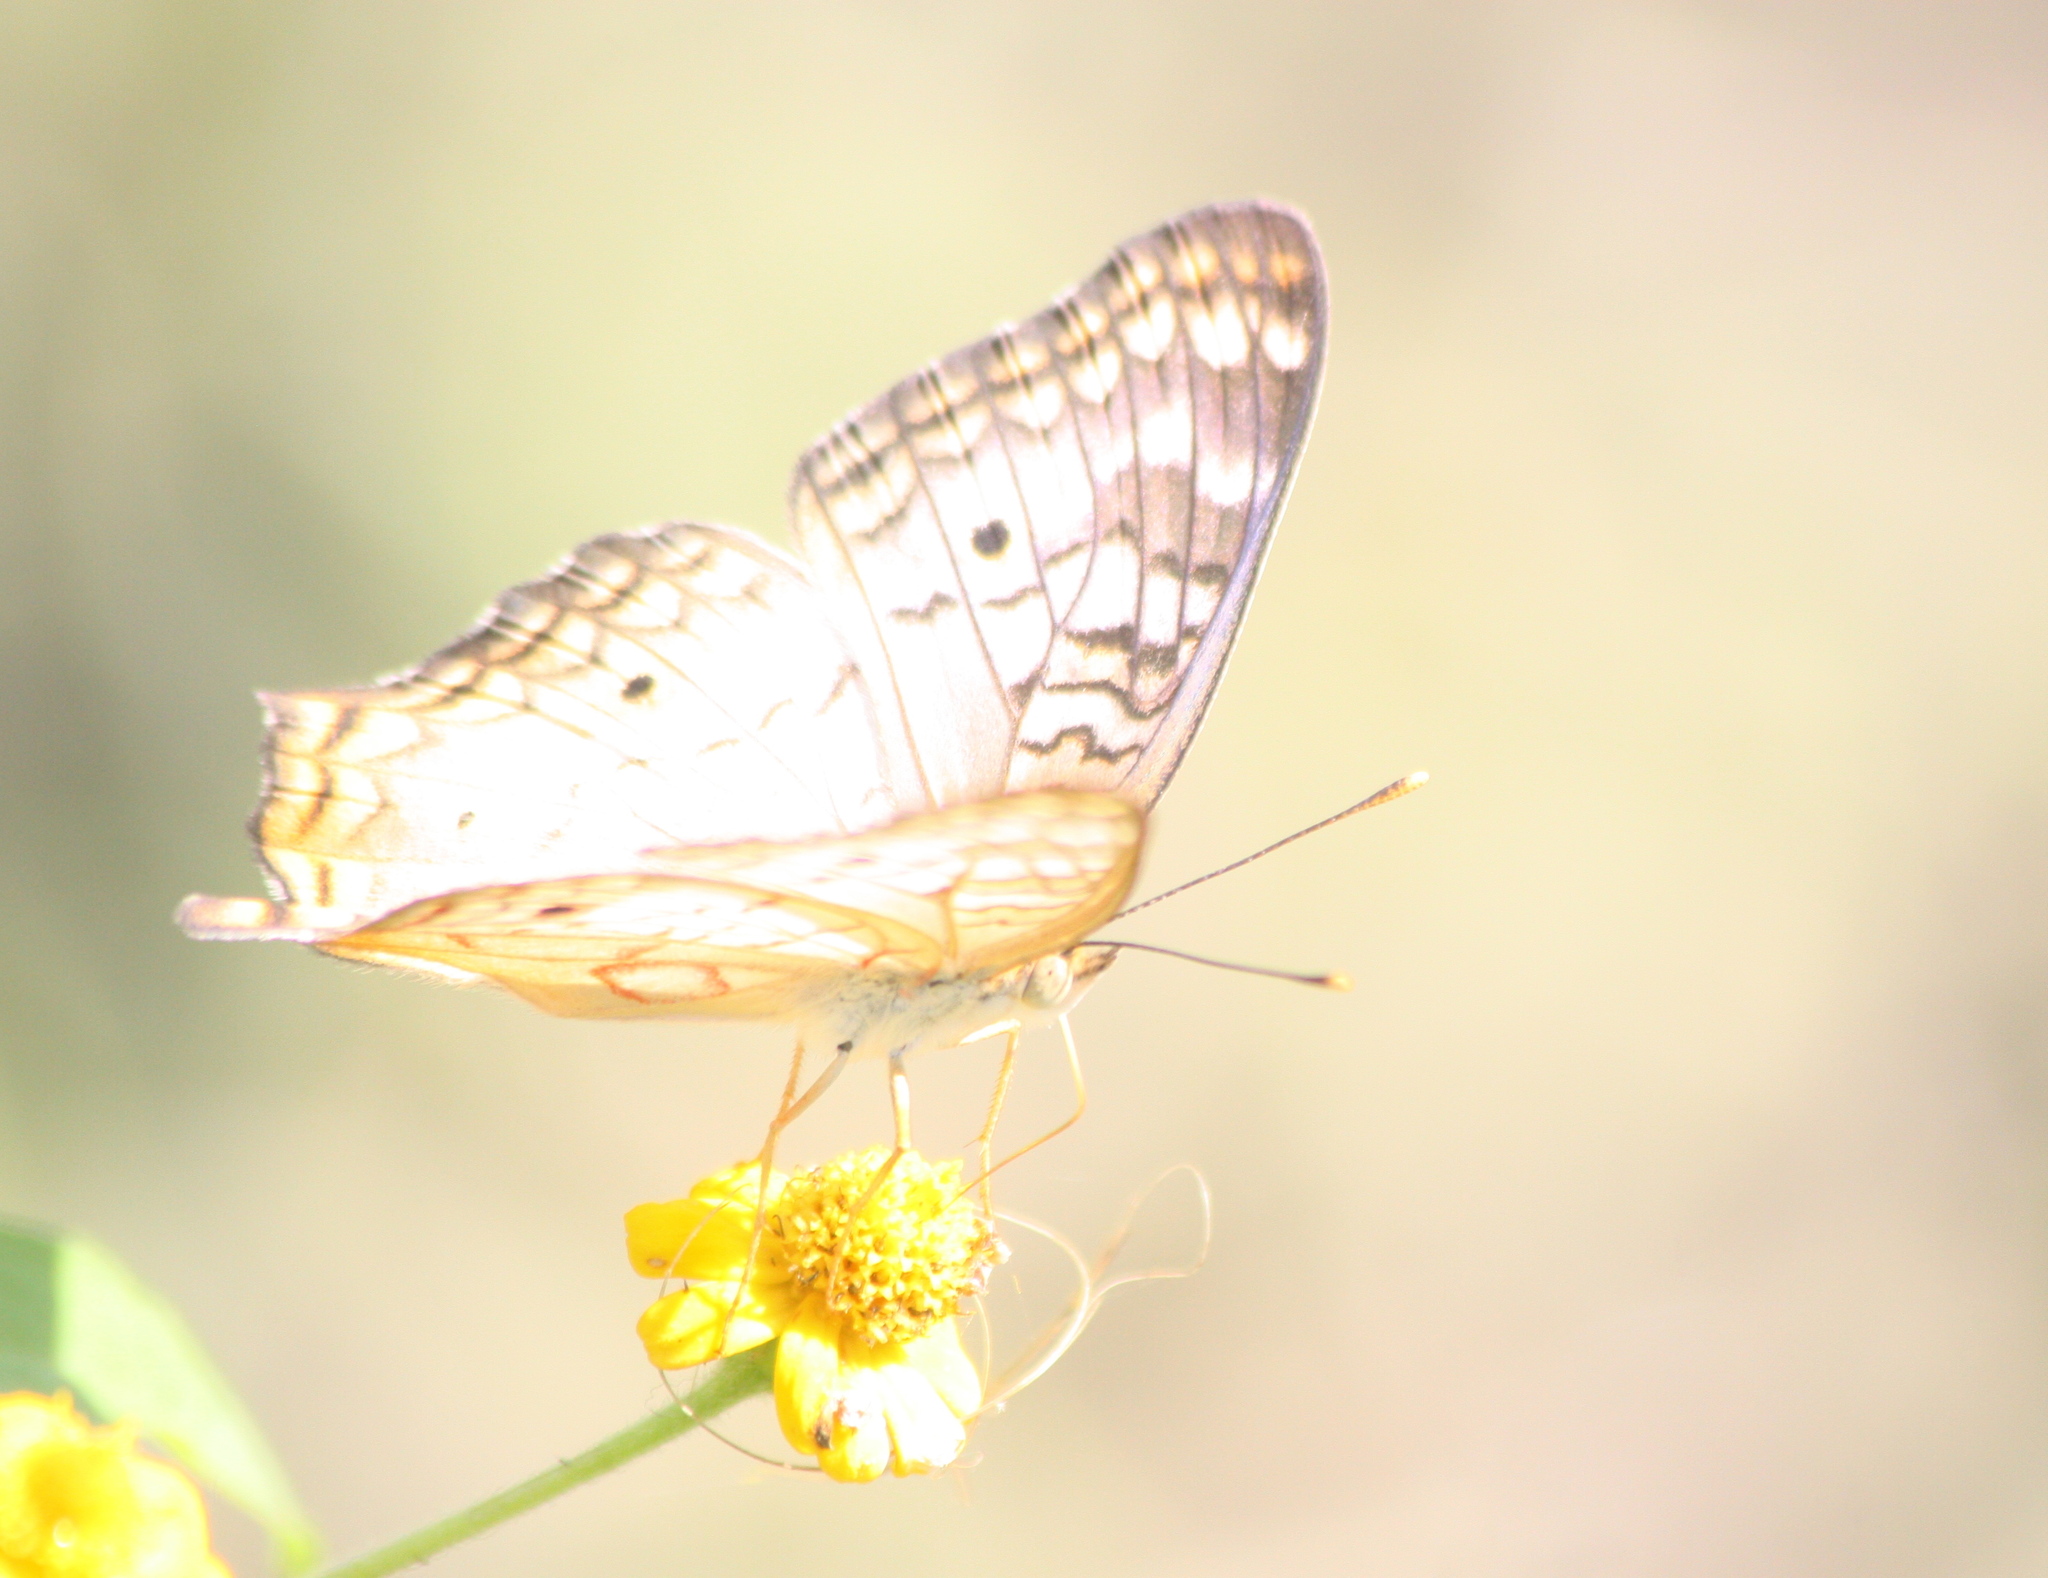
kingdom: Animalia
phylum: Arthropoda
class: Insecta
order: Lepidoptera
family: Nymphalidae
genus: Anartia
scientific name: Anartia jatrophae
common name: White peacock
